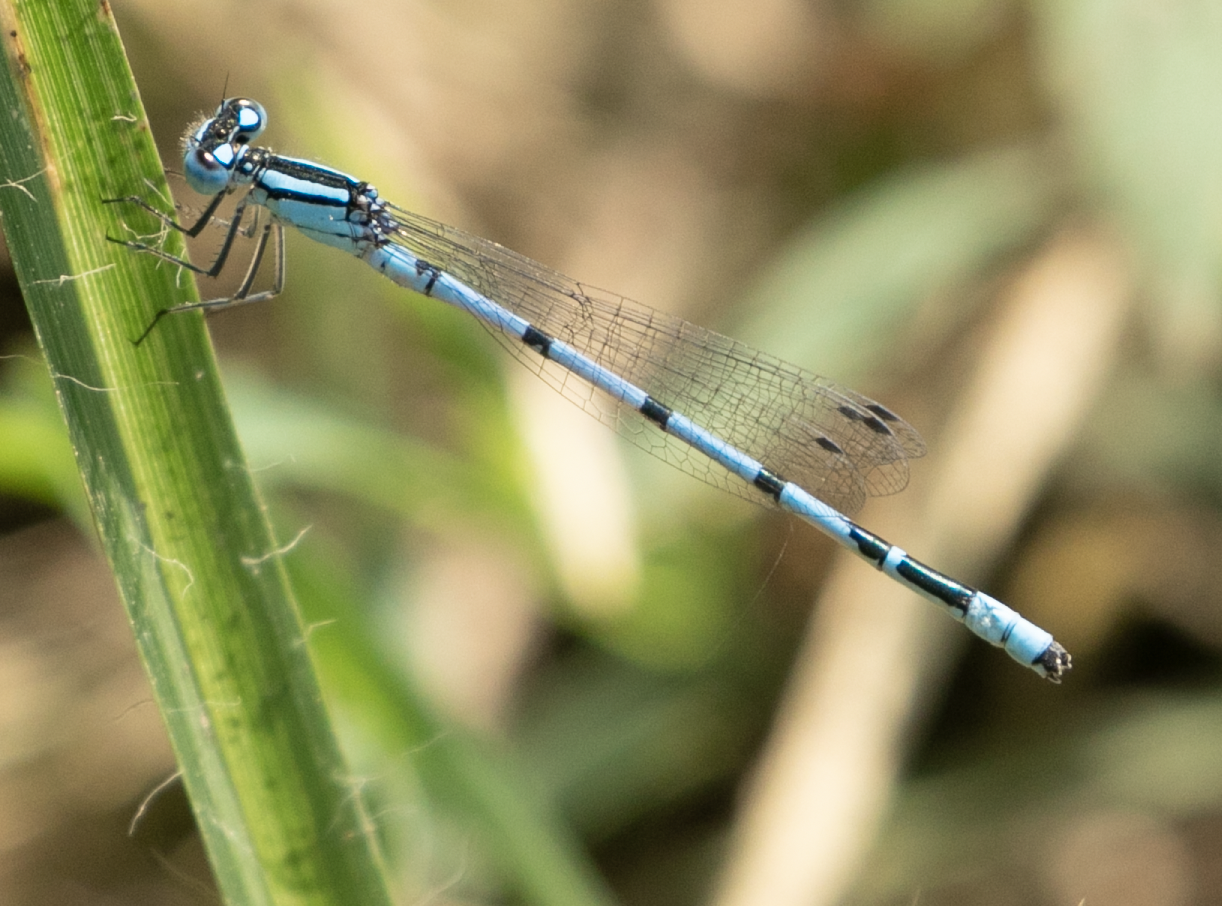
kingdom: Animalia
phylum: Arthropoda
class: Insecta
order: Odonata
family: Coenagrionidae
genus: Enallagma
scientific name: Enallagma cyathigerum
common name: Common blue damselfly
